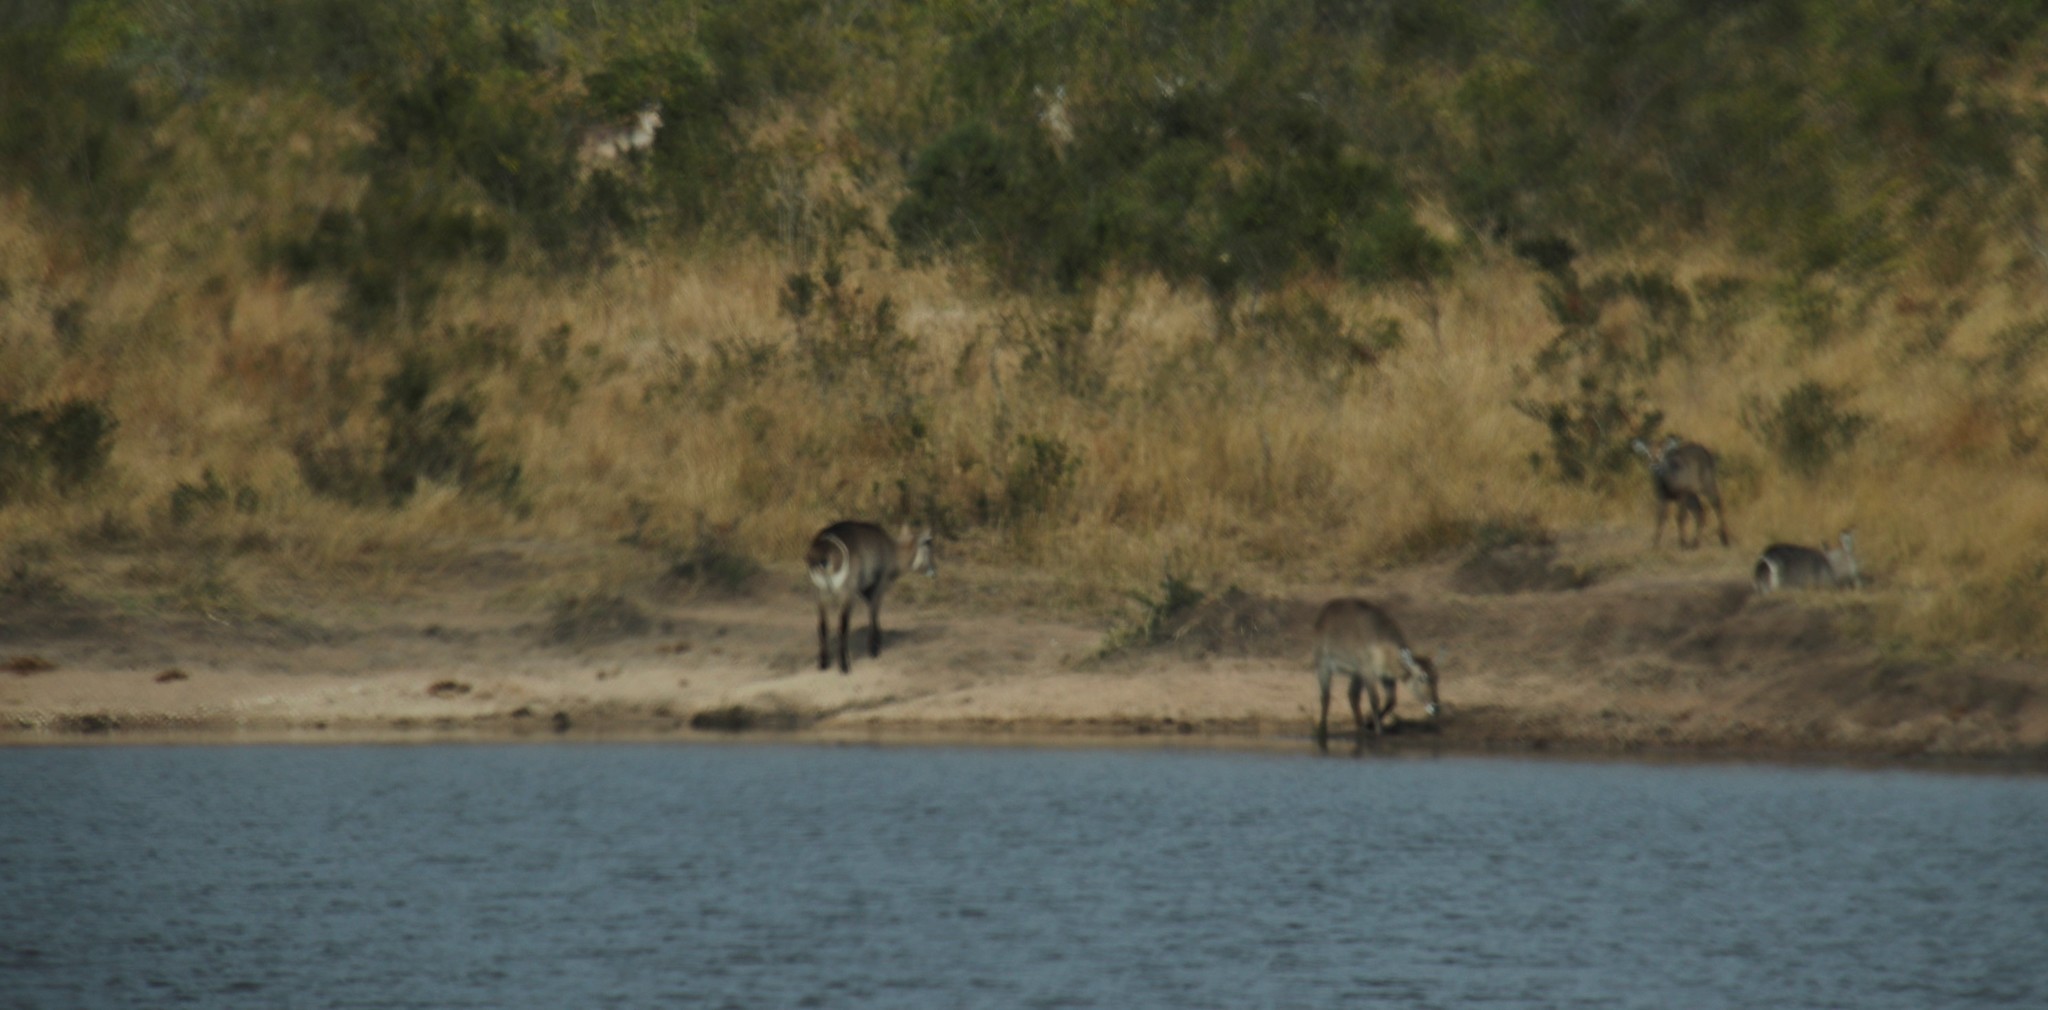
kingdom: Animalia
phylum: Chordata
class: Mammalia
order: Artiodactyla
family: Bovidae
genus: Kobus
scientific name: Kobus ellipsiprymnus
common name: Waterbuck
